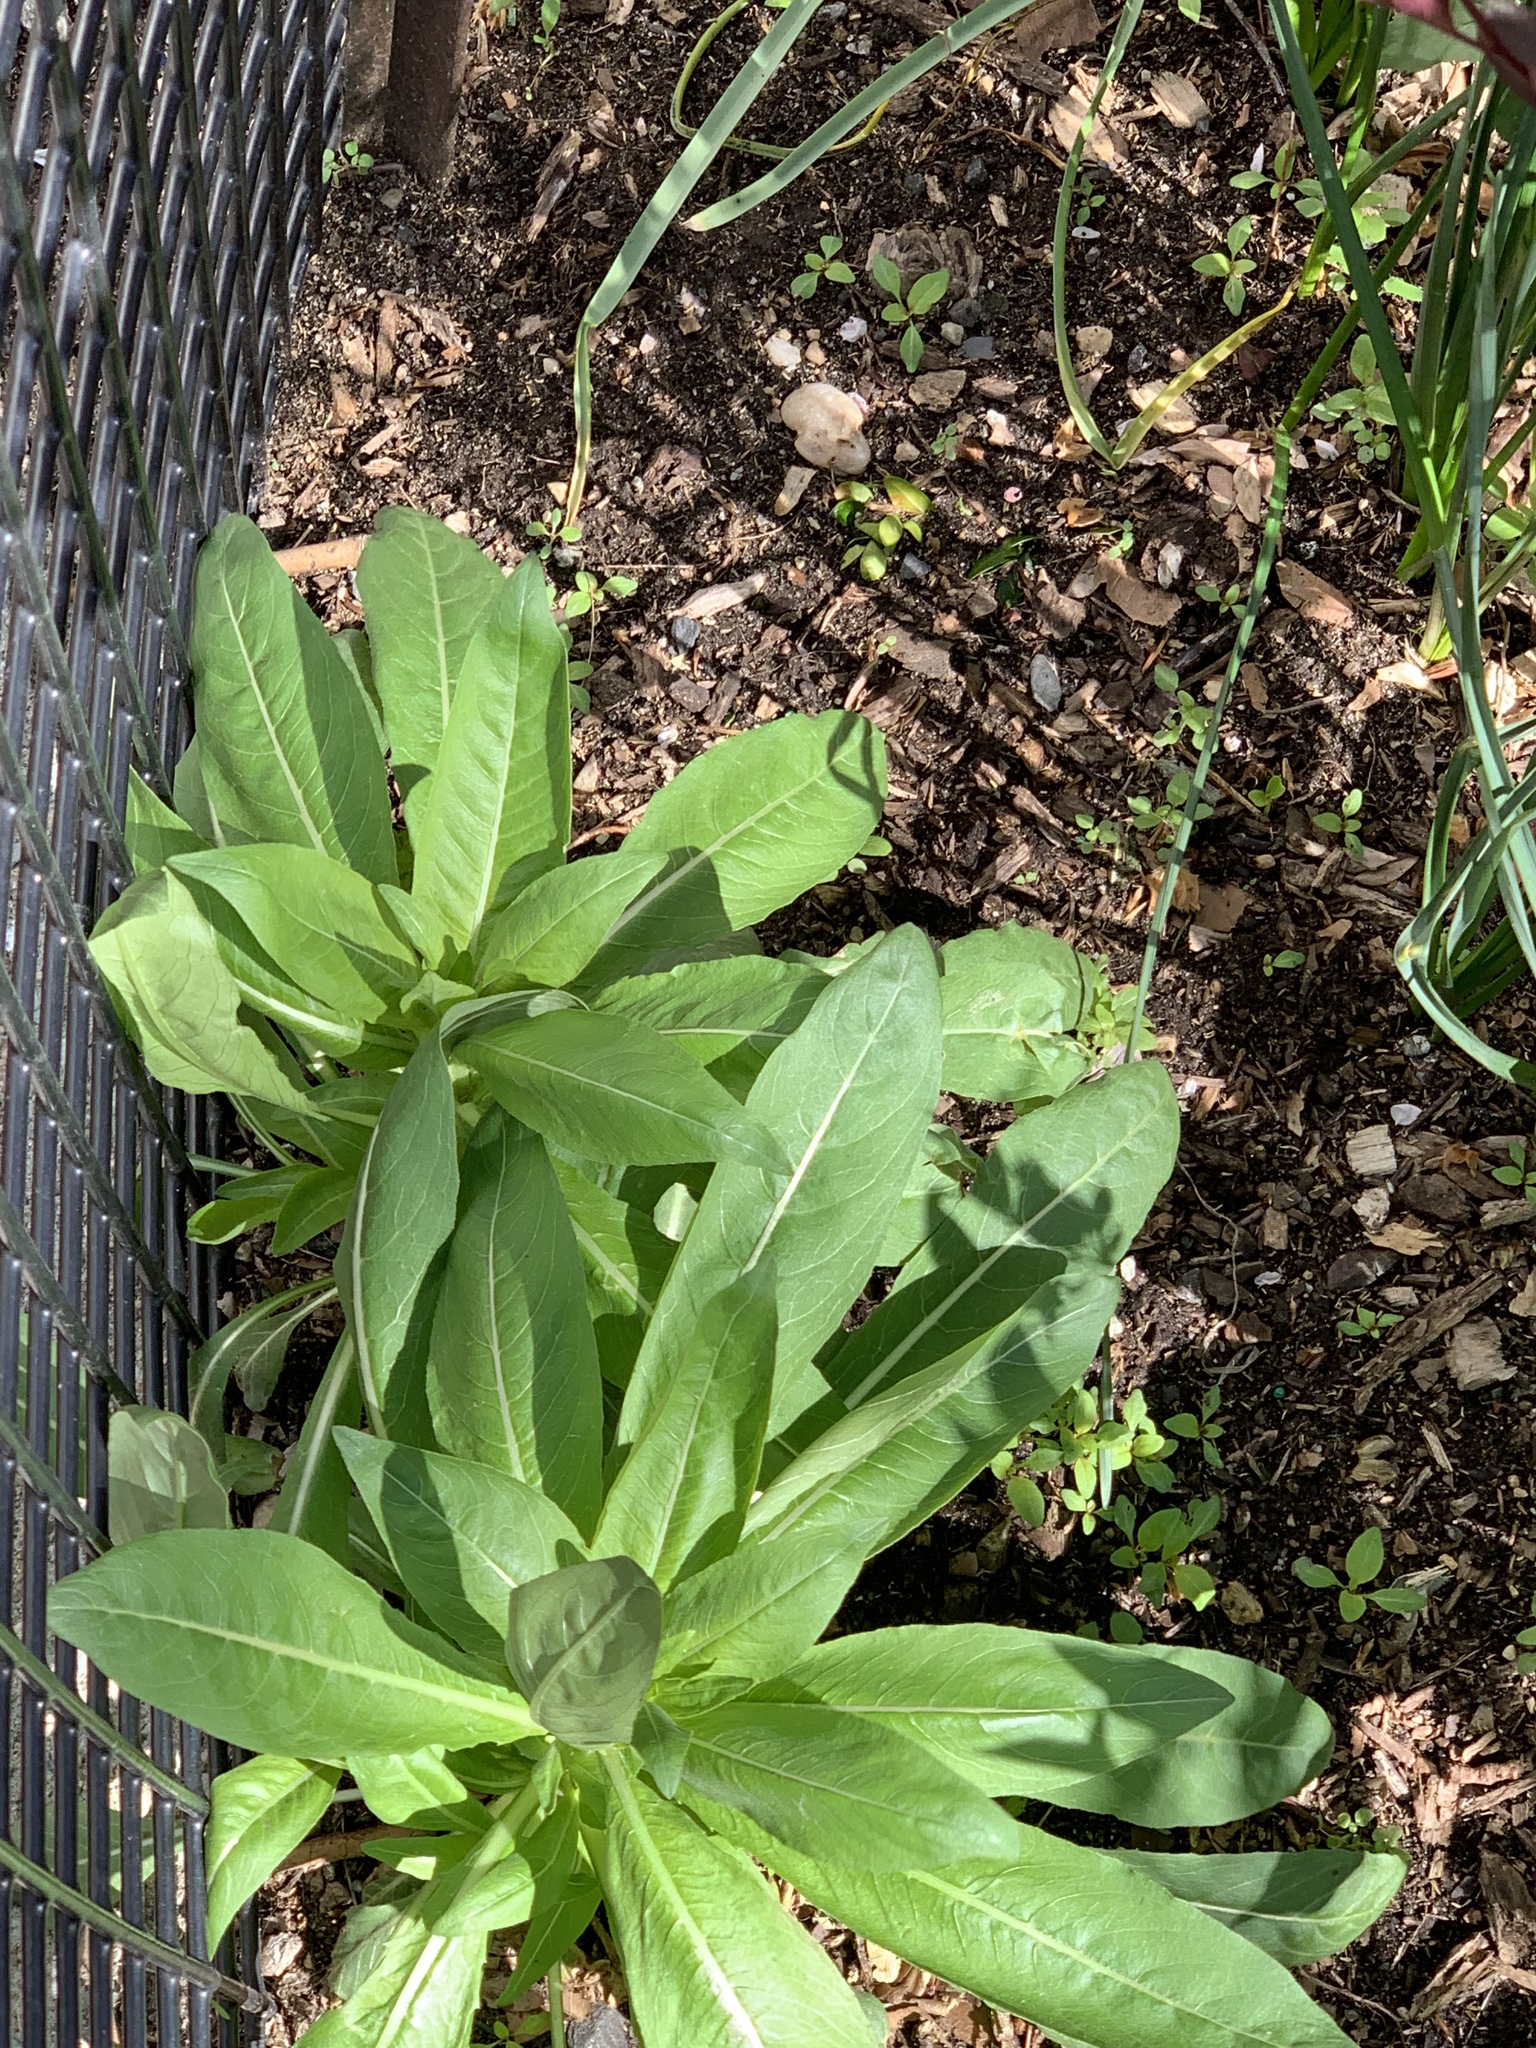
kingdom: Plantae
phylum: Tracheophyta
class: Magnoliopsida
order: Myrtales
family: Onagraceae
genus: Oenothera
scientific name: Oenothera biennis
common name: Common evening-primrose
